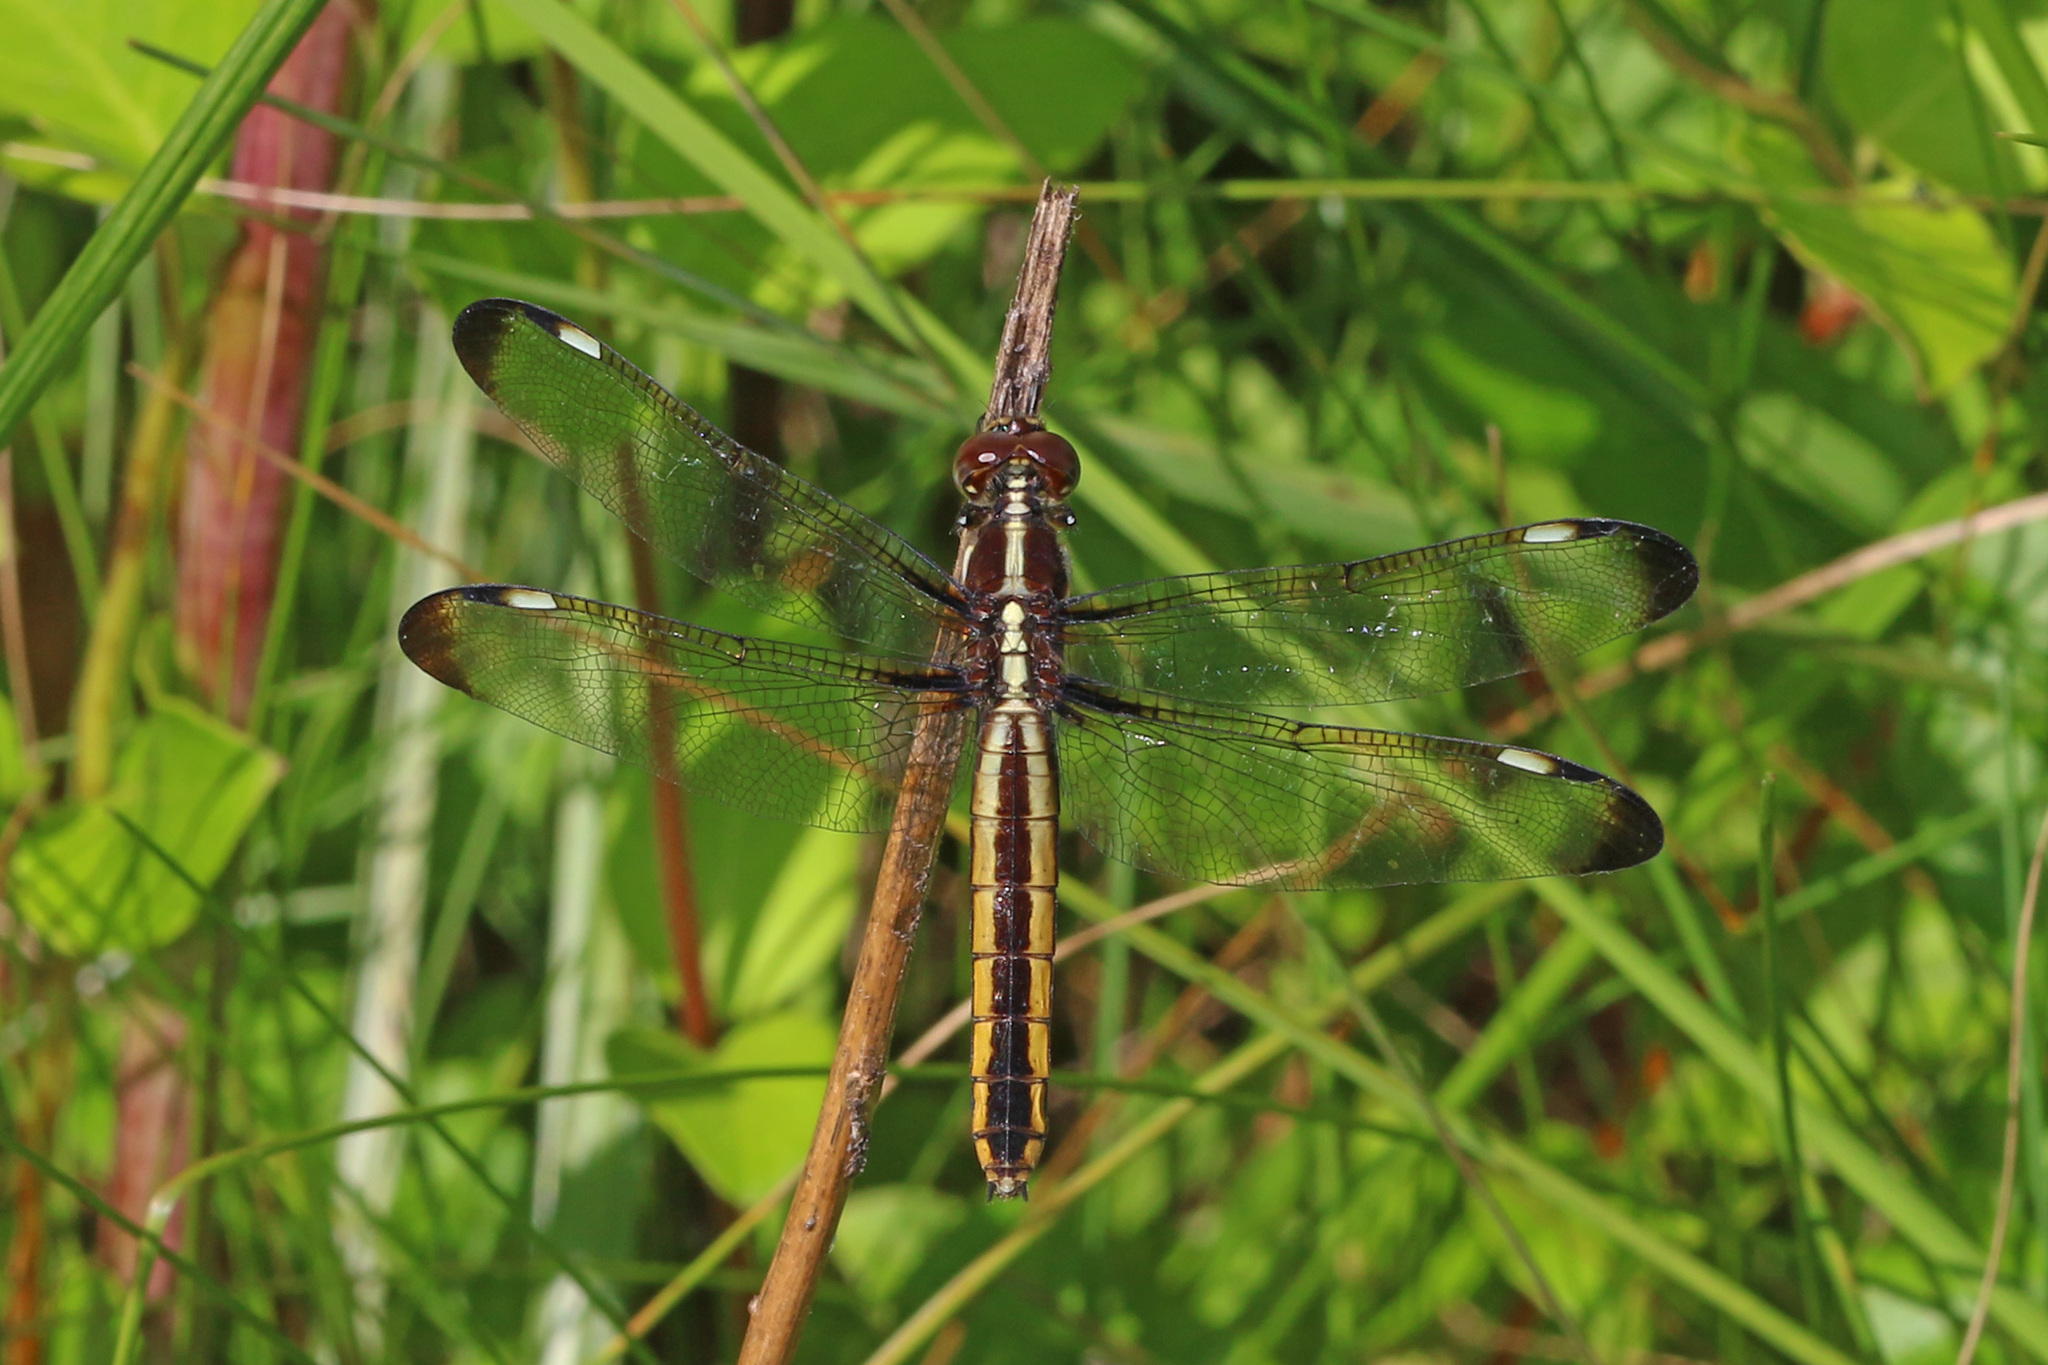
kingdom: Animalia
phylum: Arthropoda
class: Insecta
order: Odonata
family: Libellulidae
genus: Libellula
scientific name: Libellula cyanea
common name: Spangled skimmer
